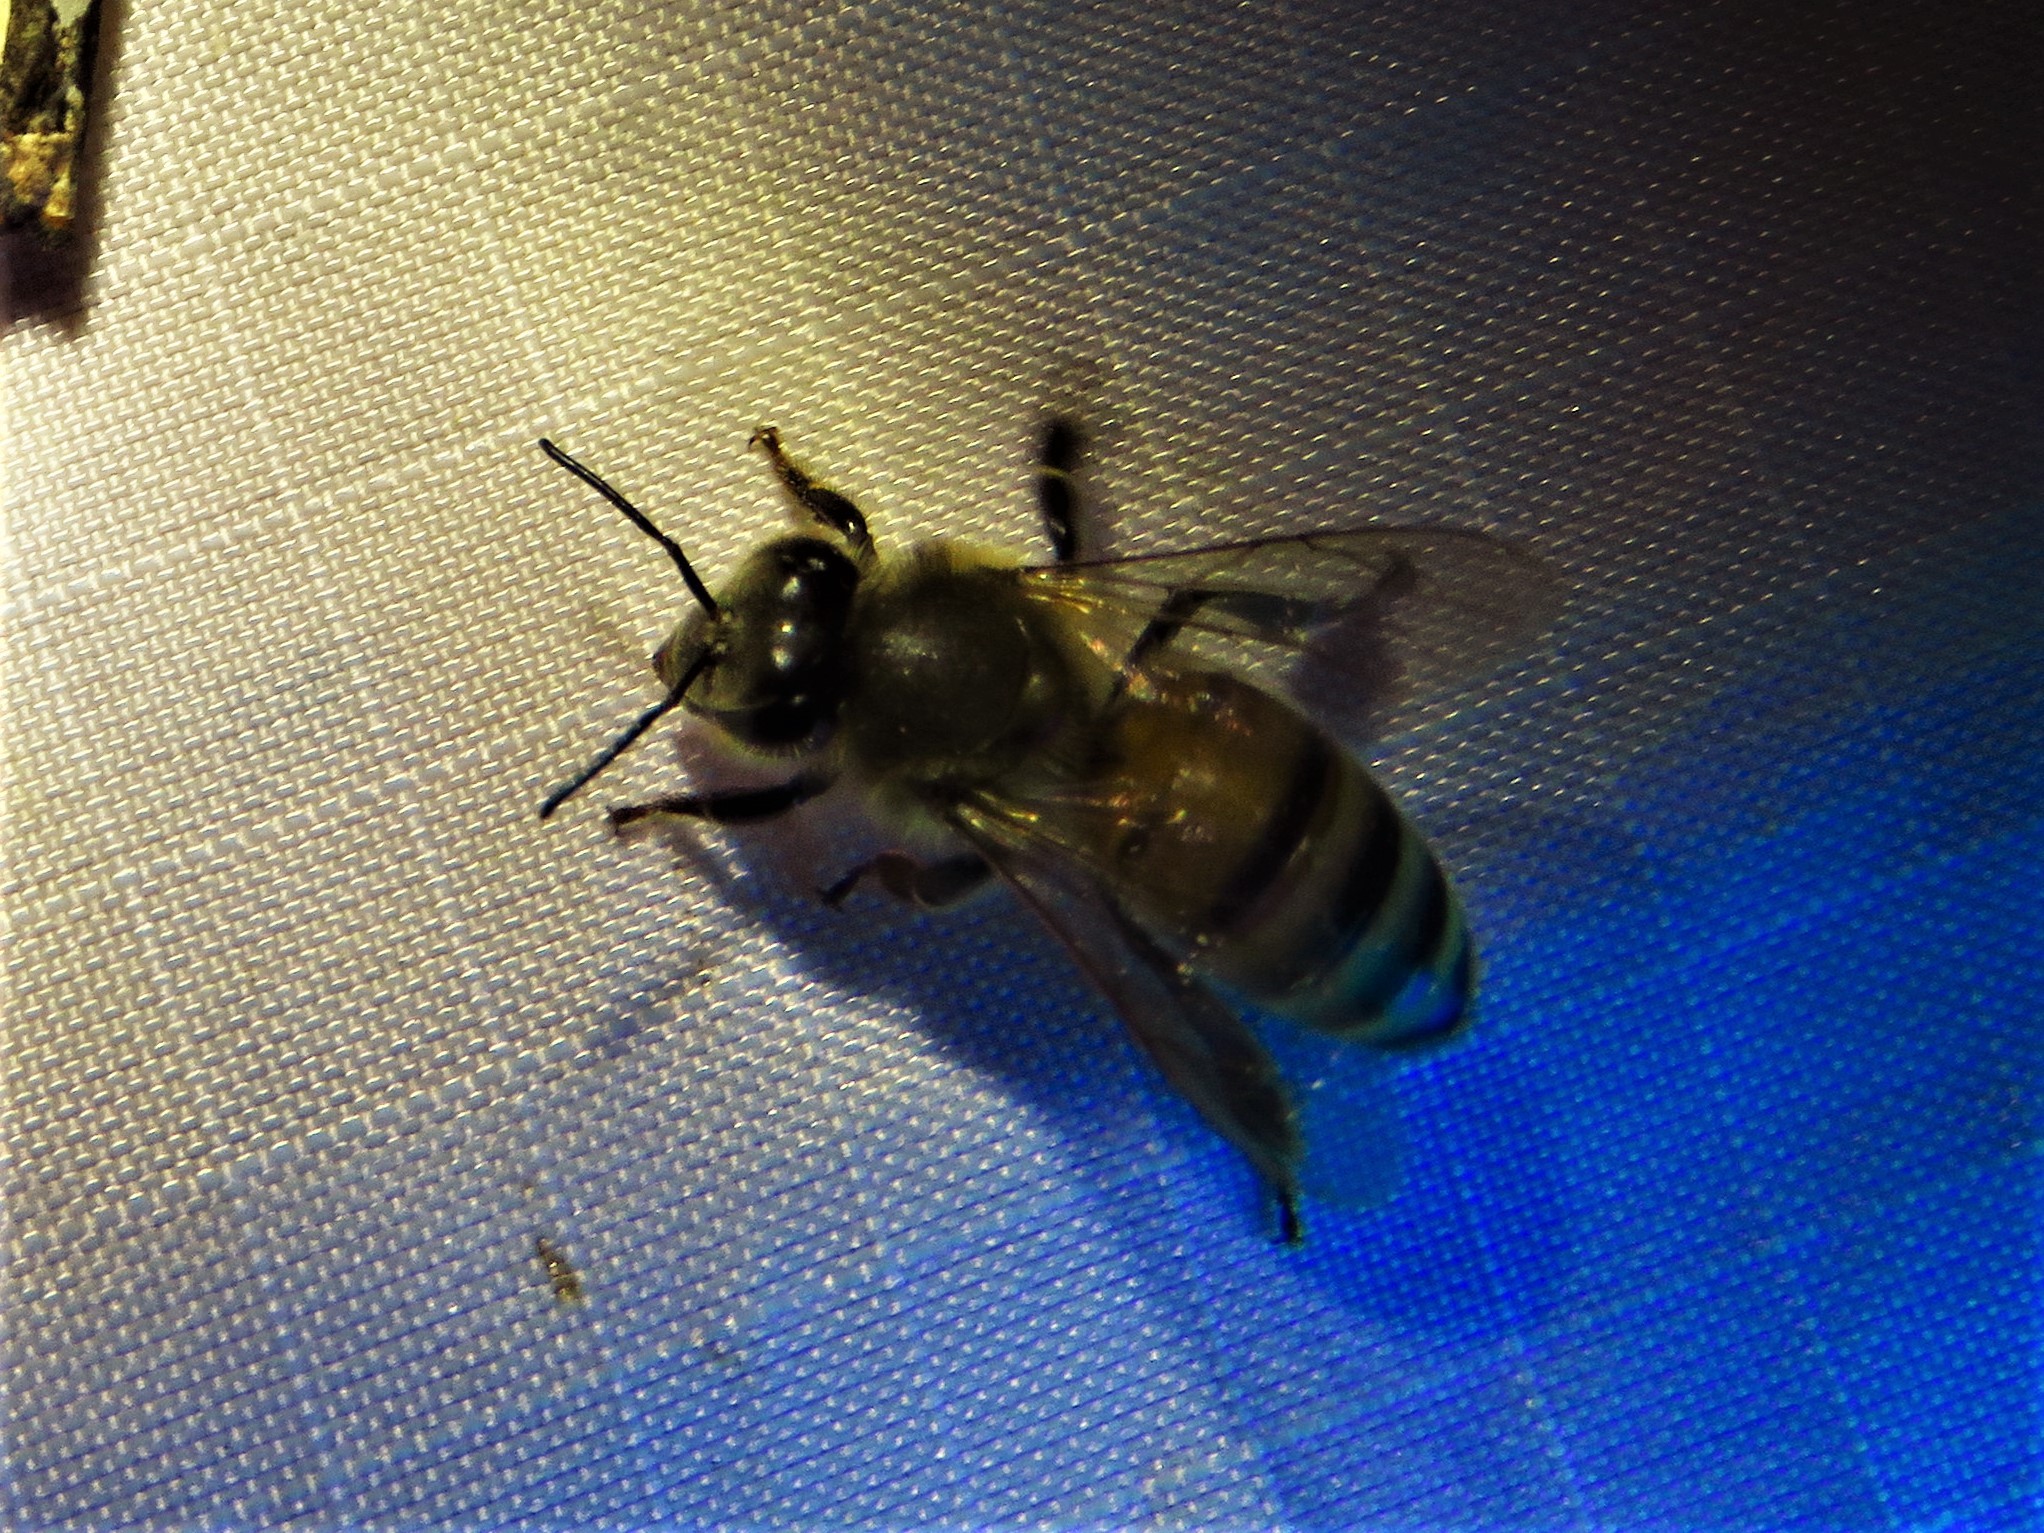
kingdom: Animalia
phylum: Arthropoda
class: Insecta
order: Hymenoptera
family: Apidae
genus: Apis
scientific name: Apis mellifera
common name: Honey bee
